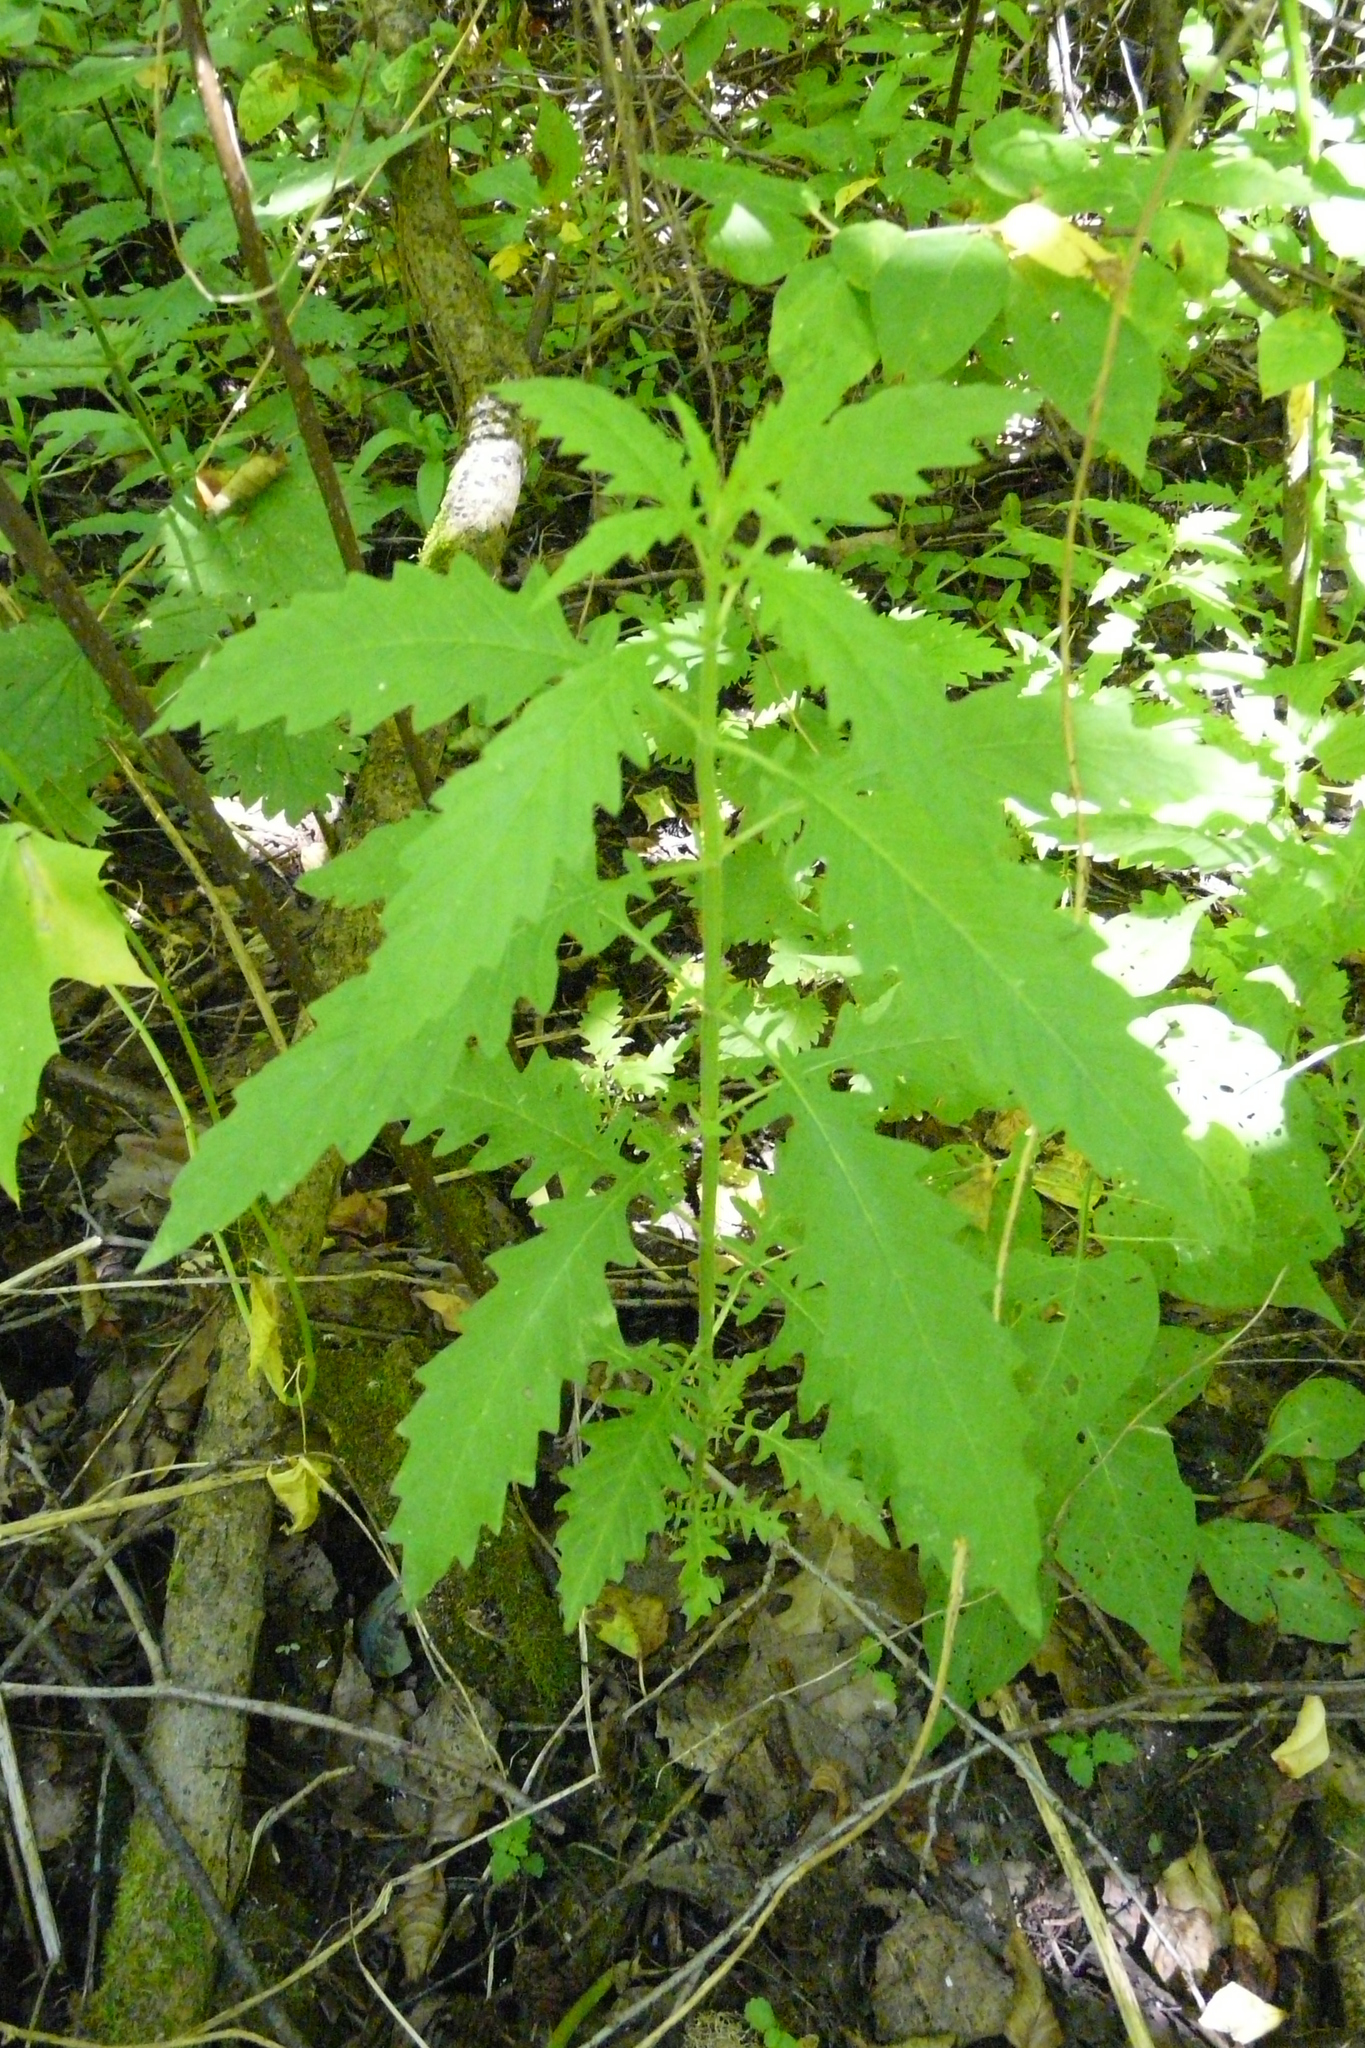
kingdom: Plantae
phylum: Tracheophyta
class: Magnoliopsida
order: Lamiales
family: Lamiaceae
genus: Lycopus
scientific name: Lycopus europaeus
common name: European bugleweed
